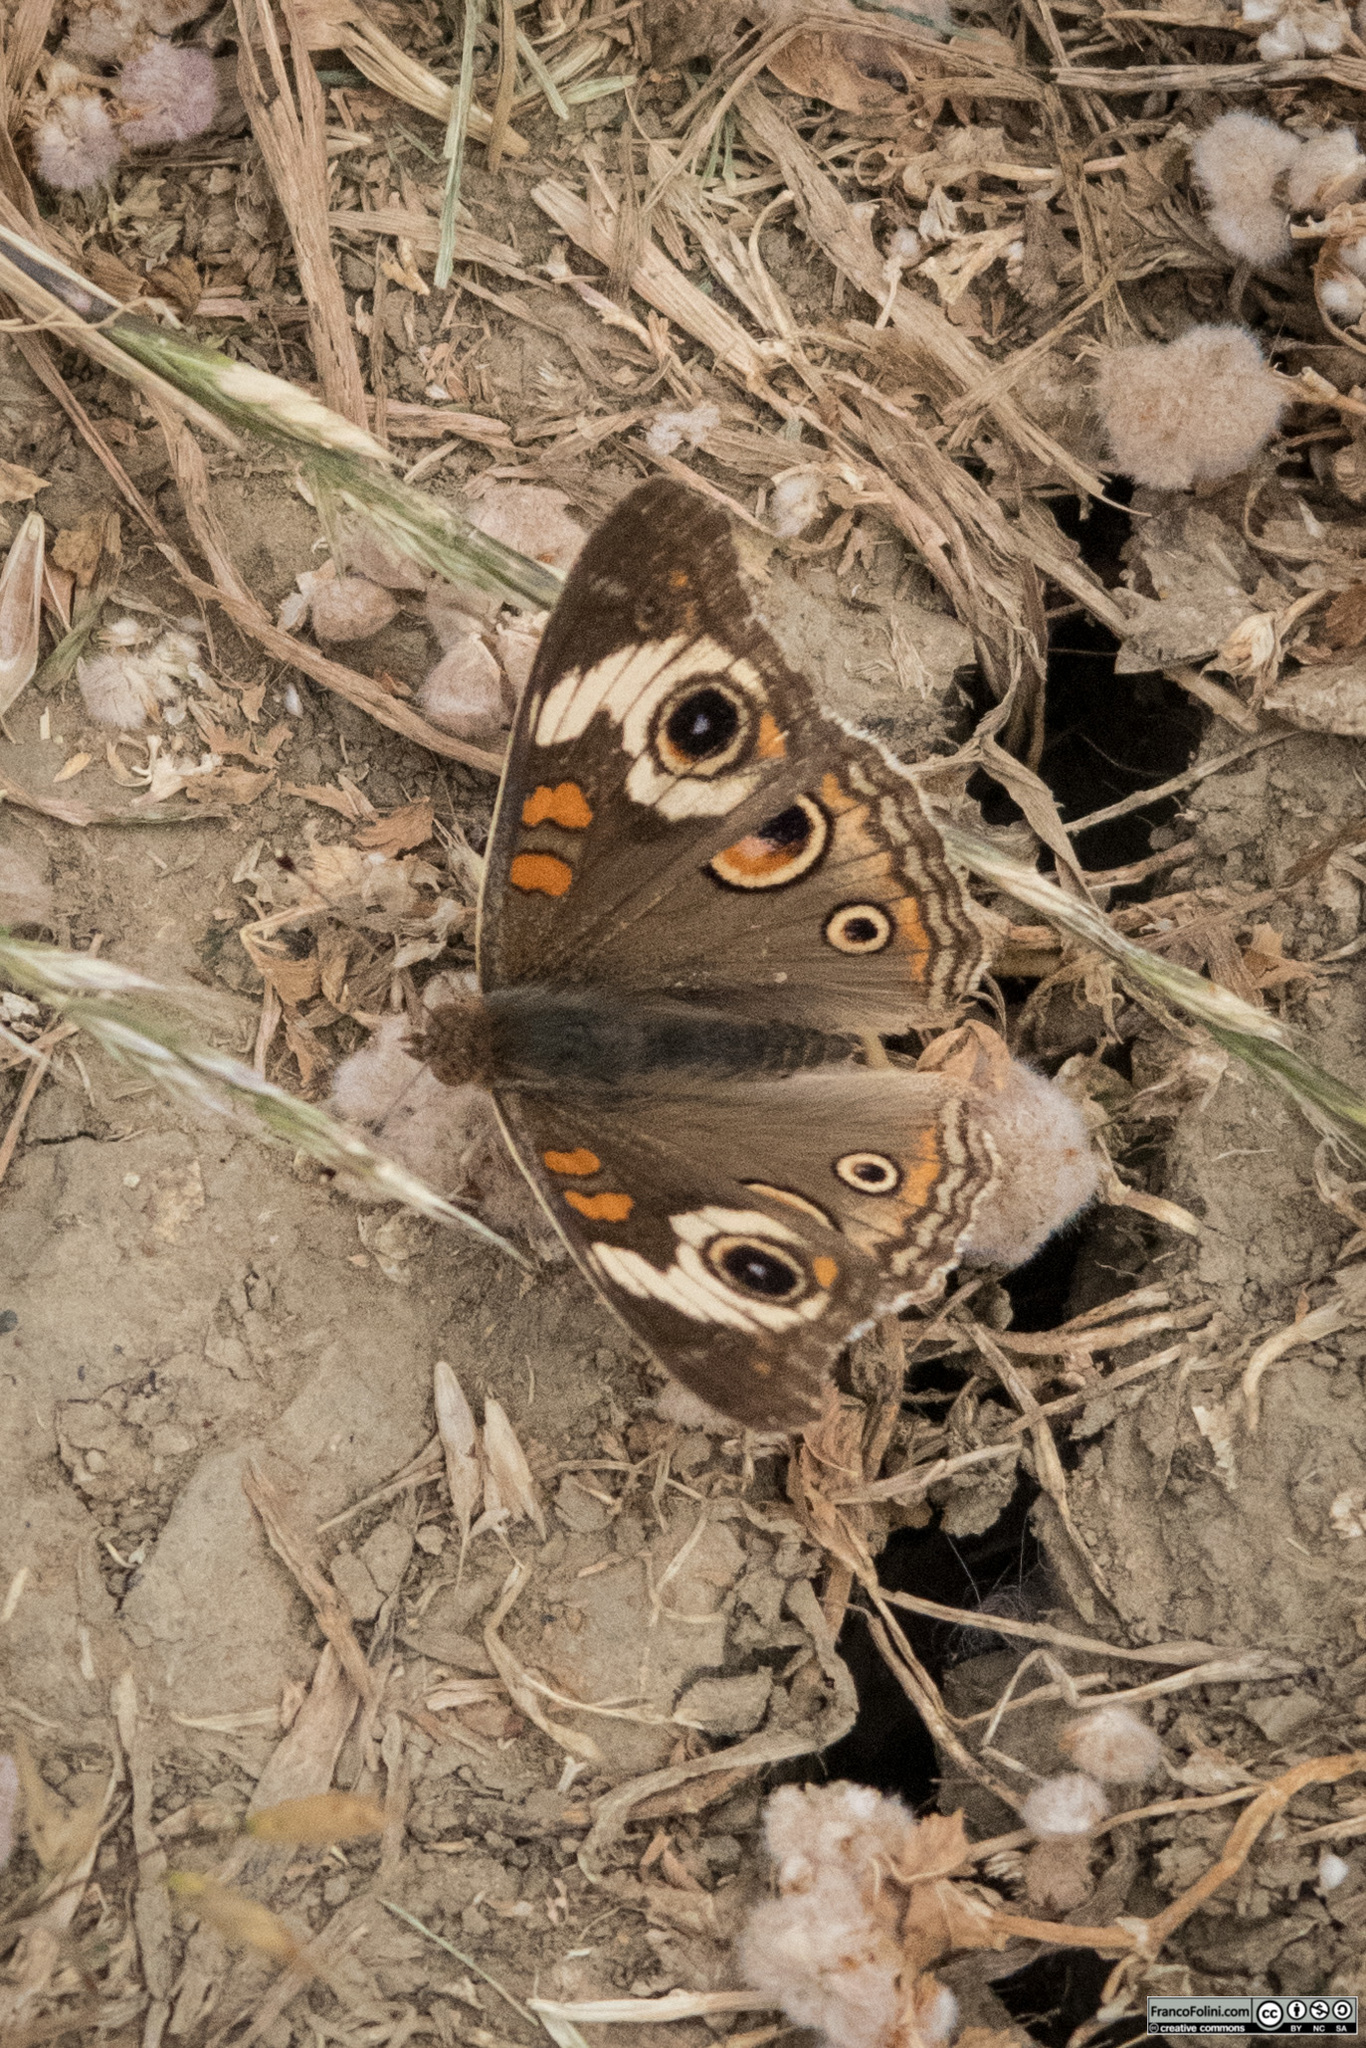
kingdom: Animalia
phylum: Arthropoda
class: Insecta
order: Lepidoptera
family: Nymphalidae
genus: Junonia
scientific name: Junonia grisea
